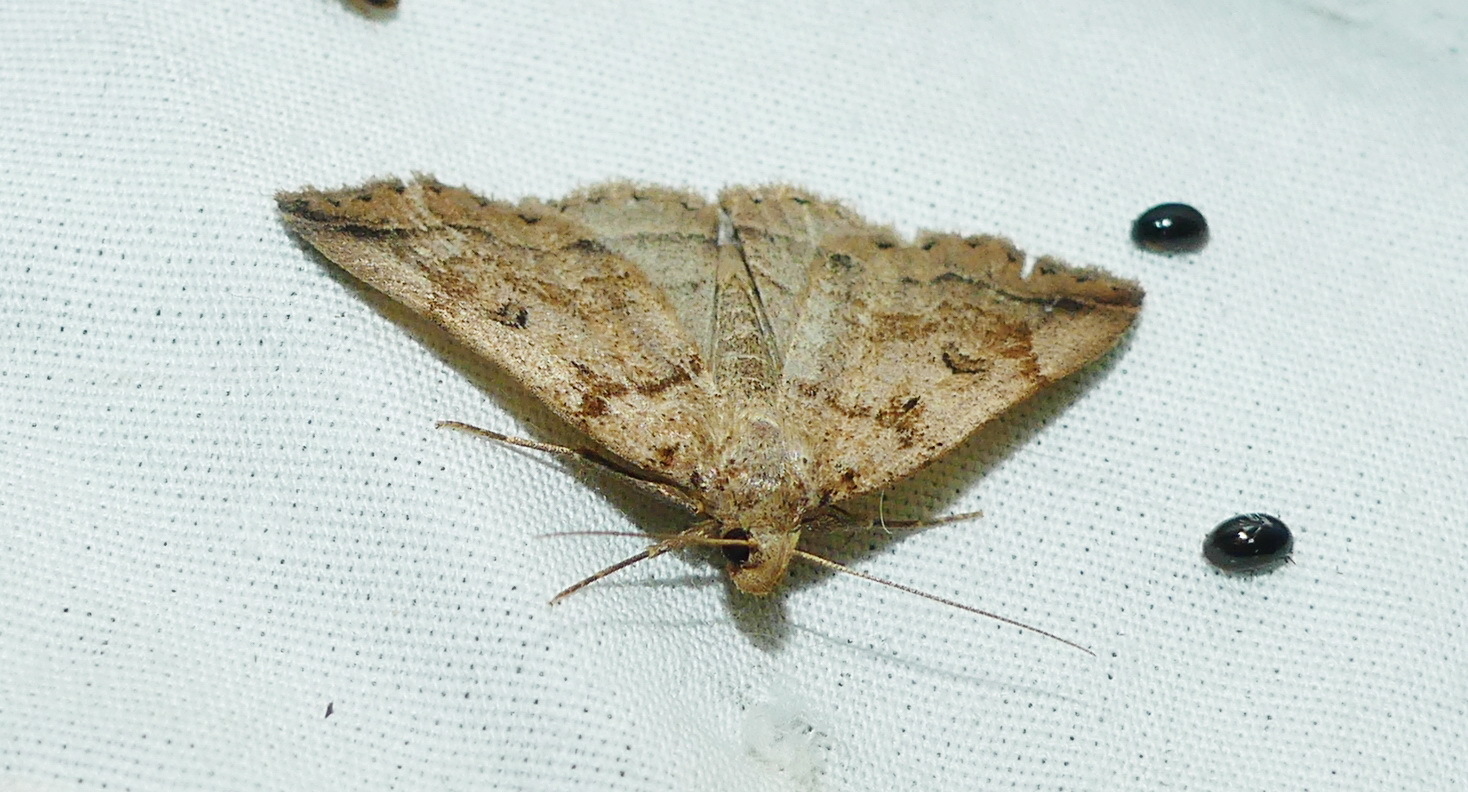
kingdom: Animalia
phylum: Arthropoda
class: Insecta
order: Lepidoptera
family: Erebidae
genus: Zanclognatha
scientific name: Zanclognatha laevigata
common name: Variable fan-foot
